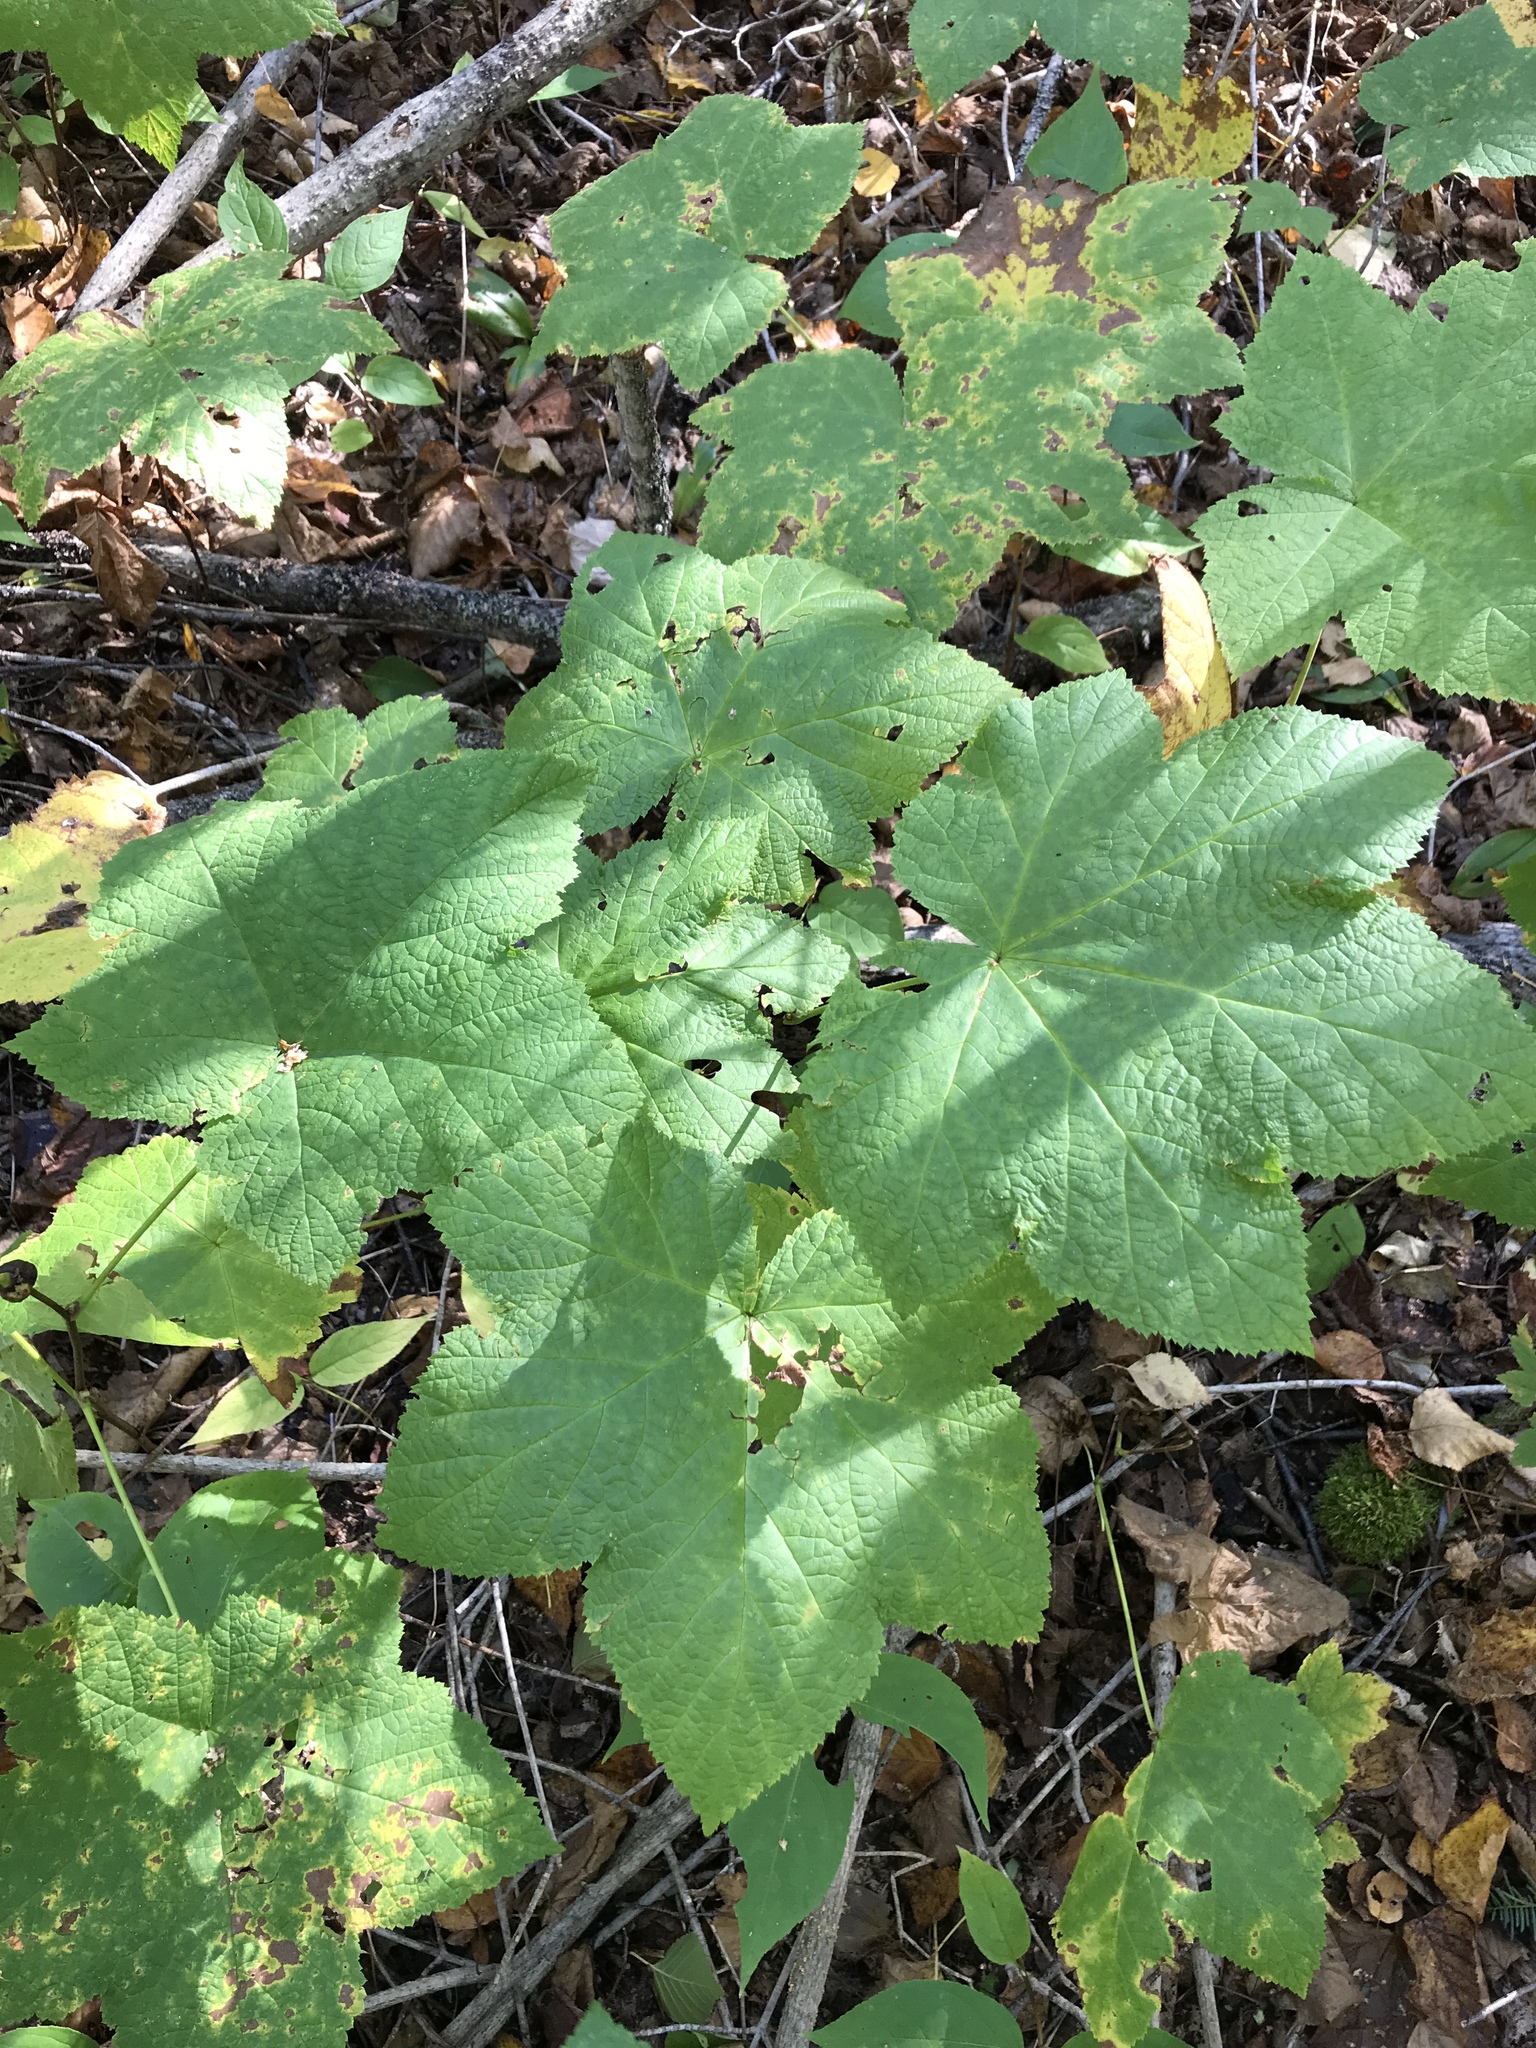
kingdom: Plantae
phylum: Tracheophyta
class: Magnoliopsida
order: Rosales
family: Rosaceae
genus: Rubus
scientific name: Rubus parviflorus
